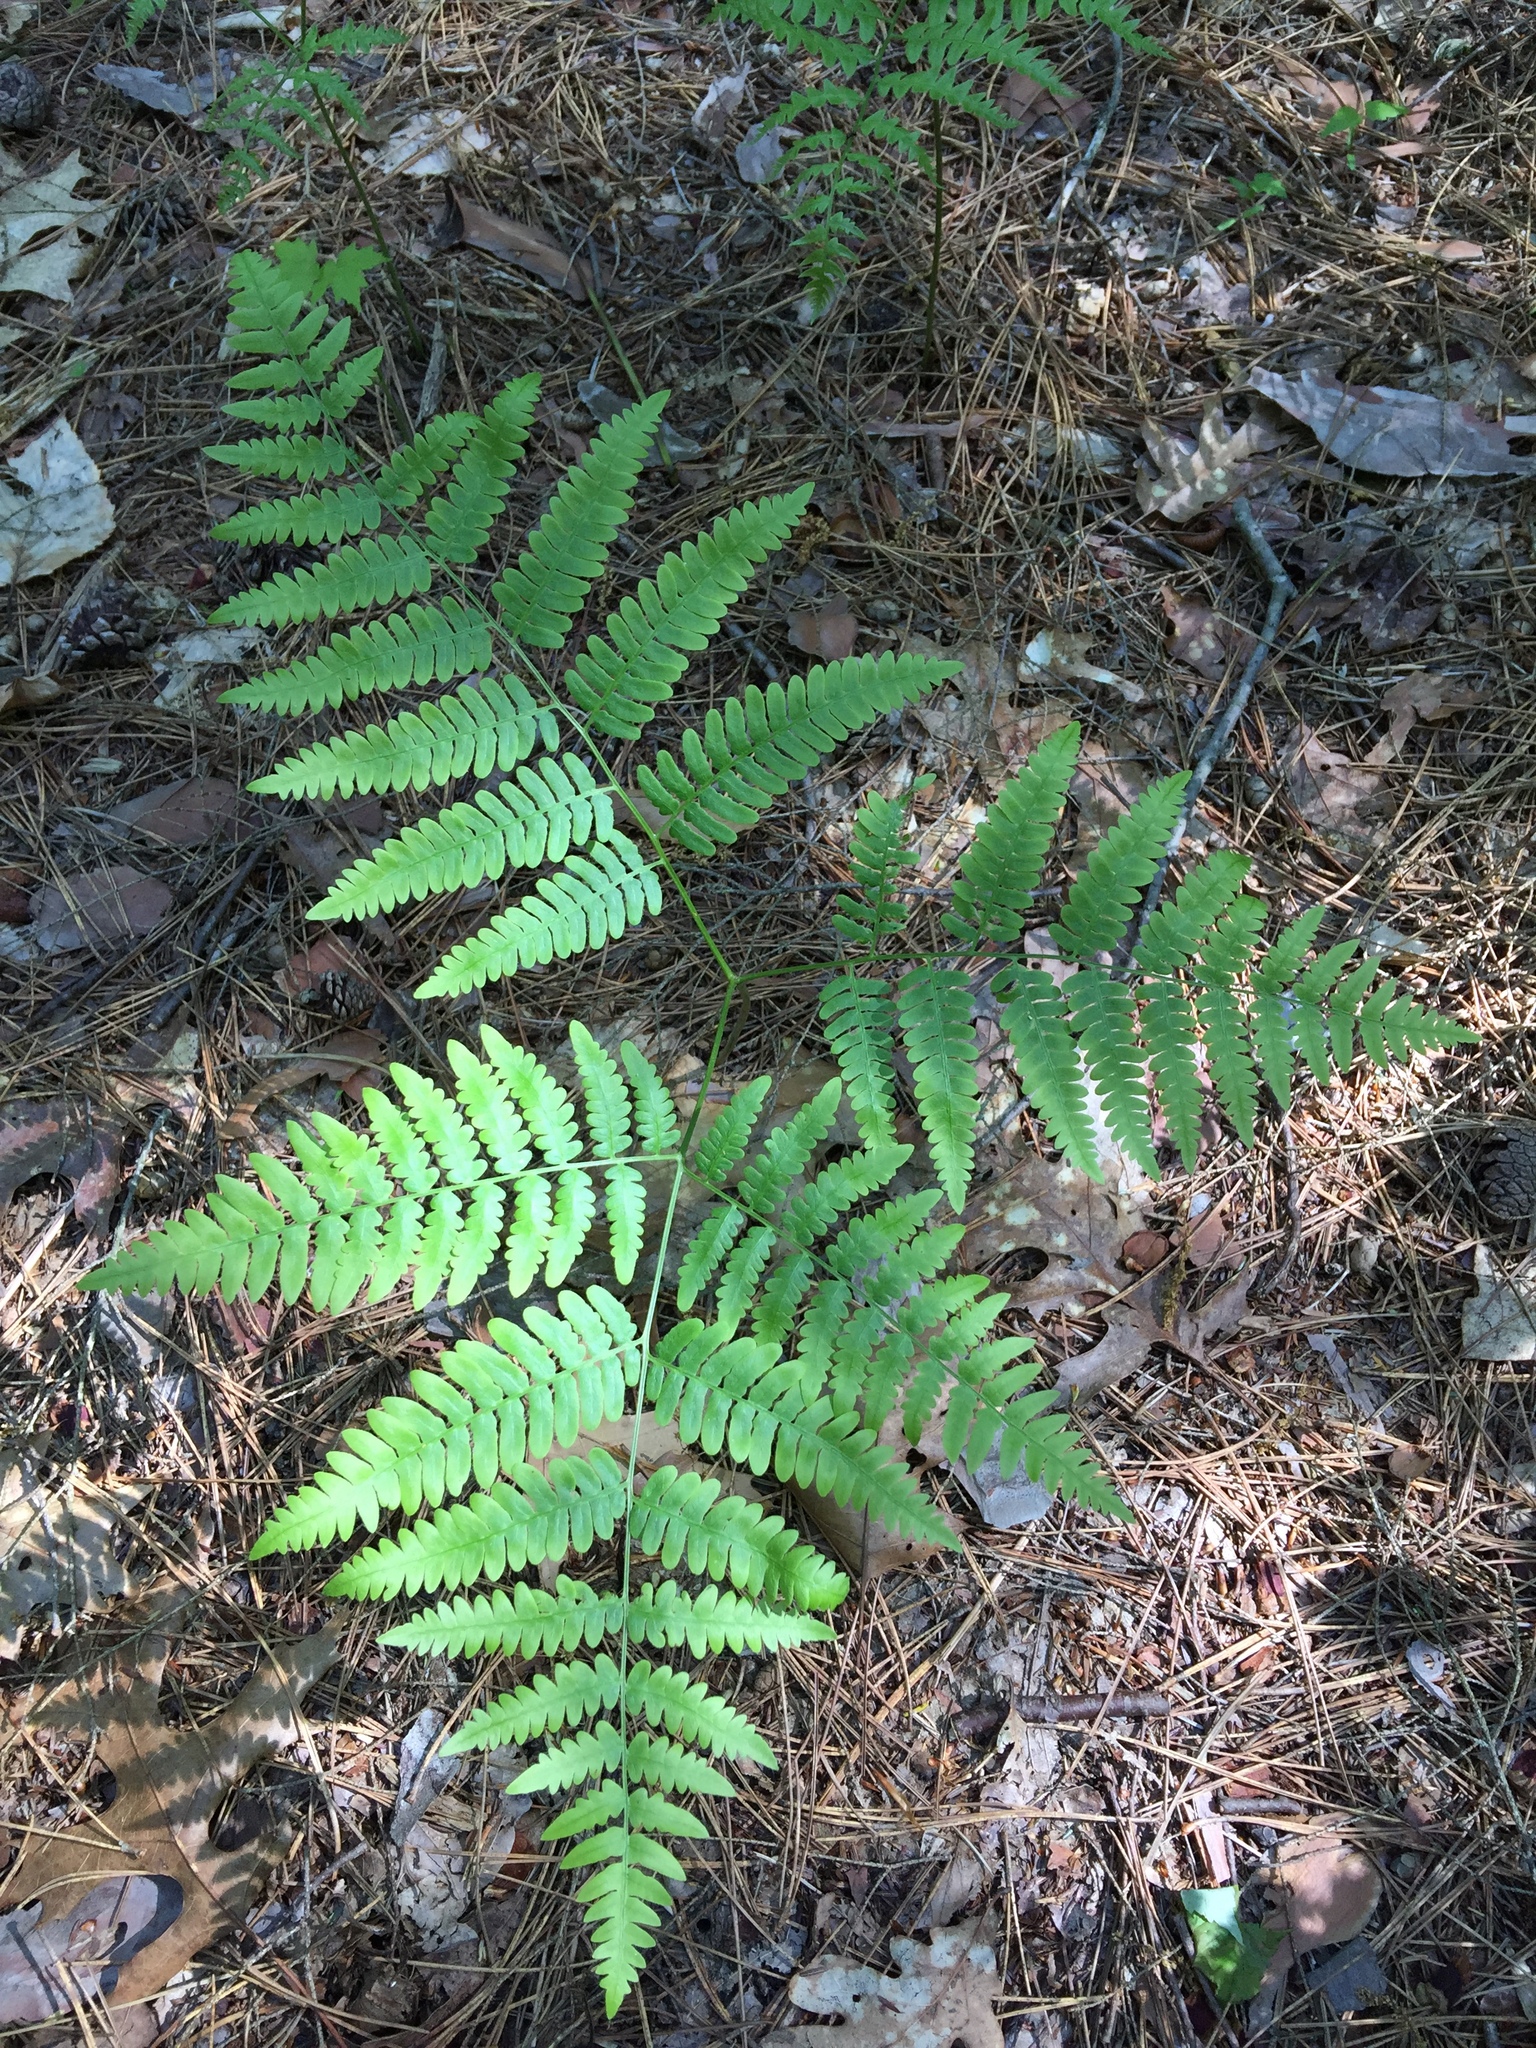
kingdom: Plantae
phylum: Tracheophyta
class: Polypodiopsida
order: Polypodiales
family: Dennstaedtiaceae
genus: Pteridium
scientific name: Pteridium aquilinum
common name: Bracken
